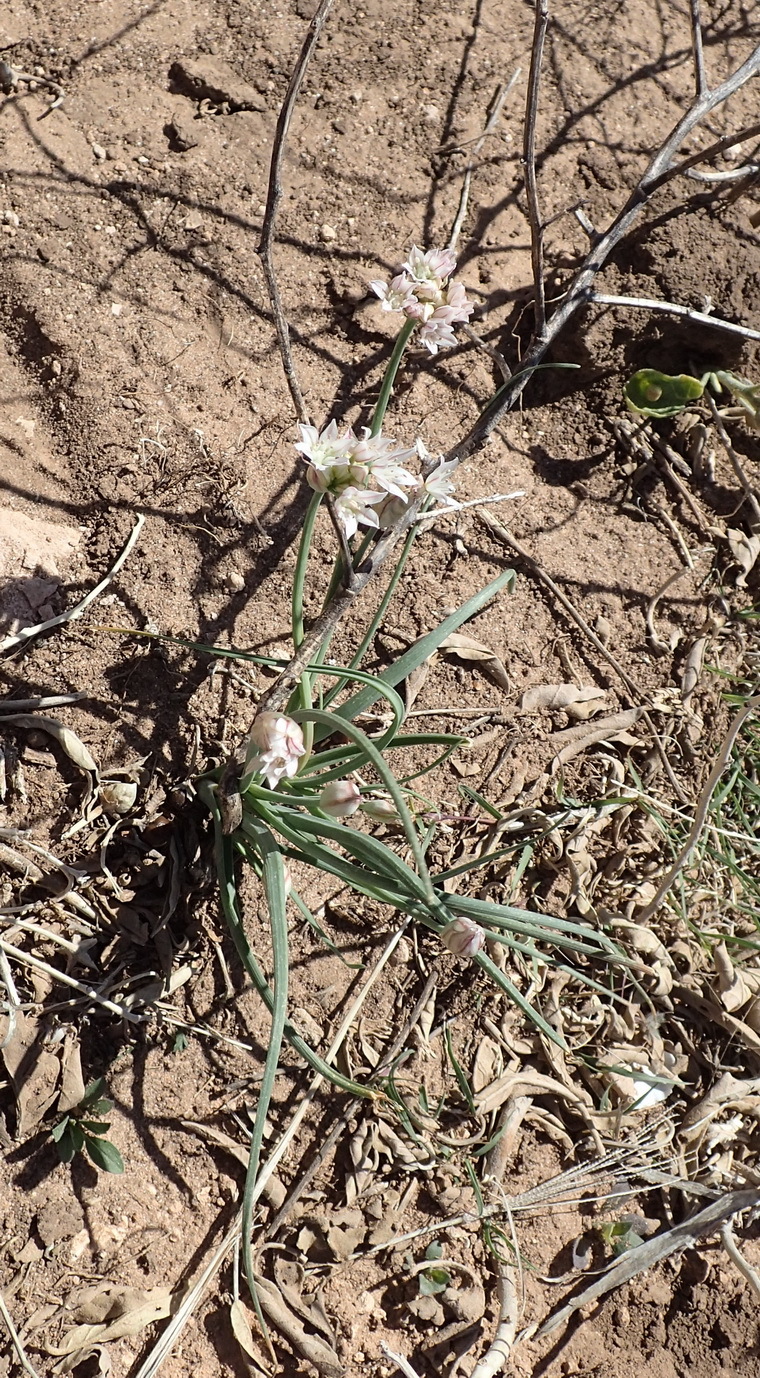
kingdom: Plantae
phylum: Tracheophyta
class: Liliopsida
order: Asparagales
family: Amaryllidaceae
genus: Allium
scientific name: Allium drummondii
